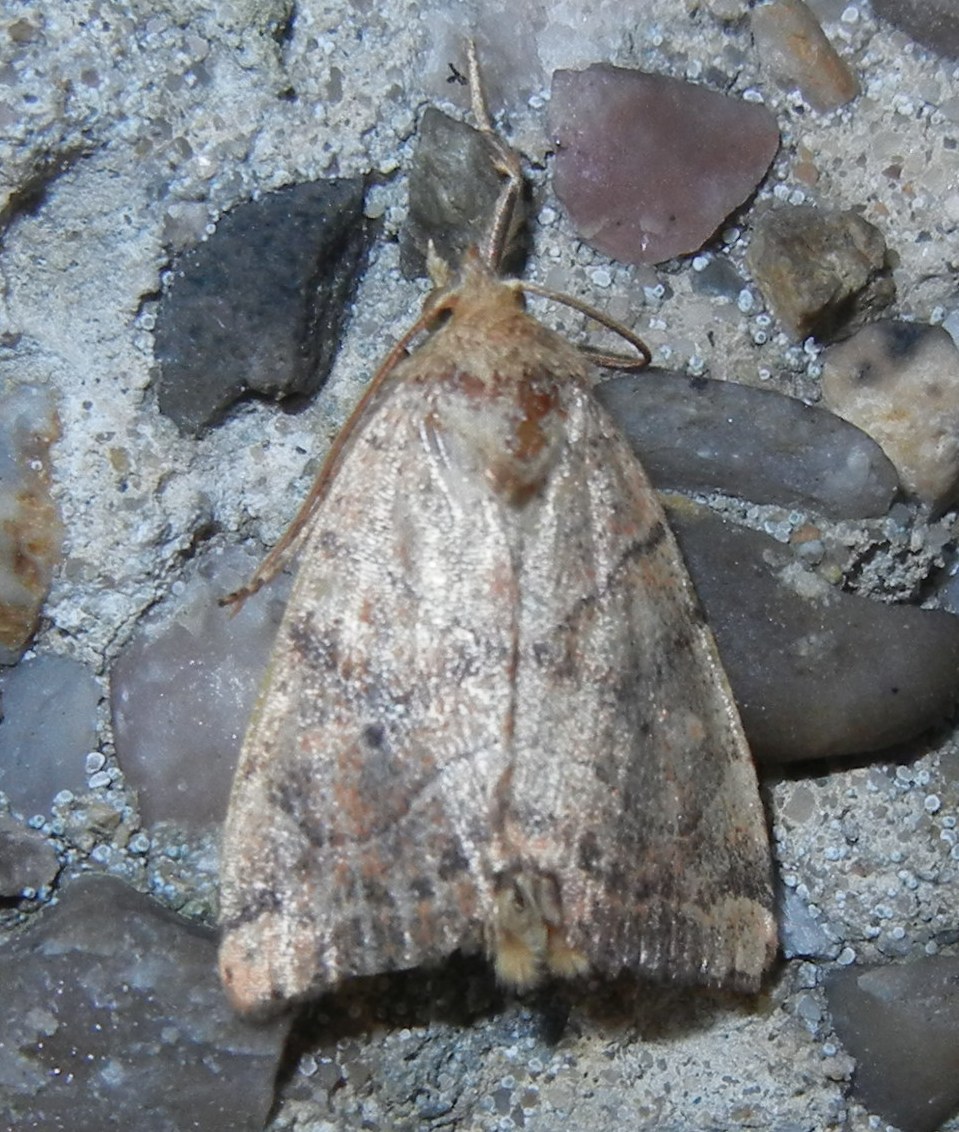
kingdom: Animalia
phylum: Arthropoda
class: Insecta
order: Lepidoptera
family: Noctuidae
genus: Cosmia
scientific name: Cosmia trapezina
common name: Dun-bar
